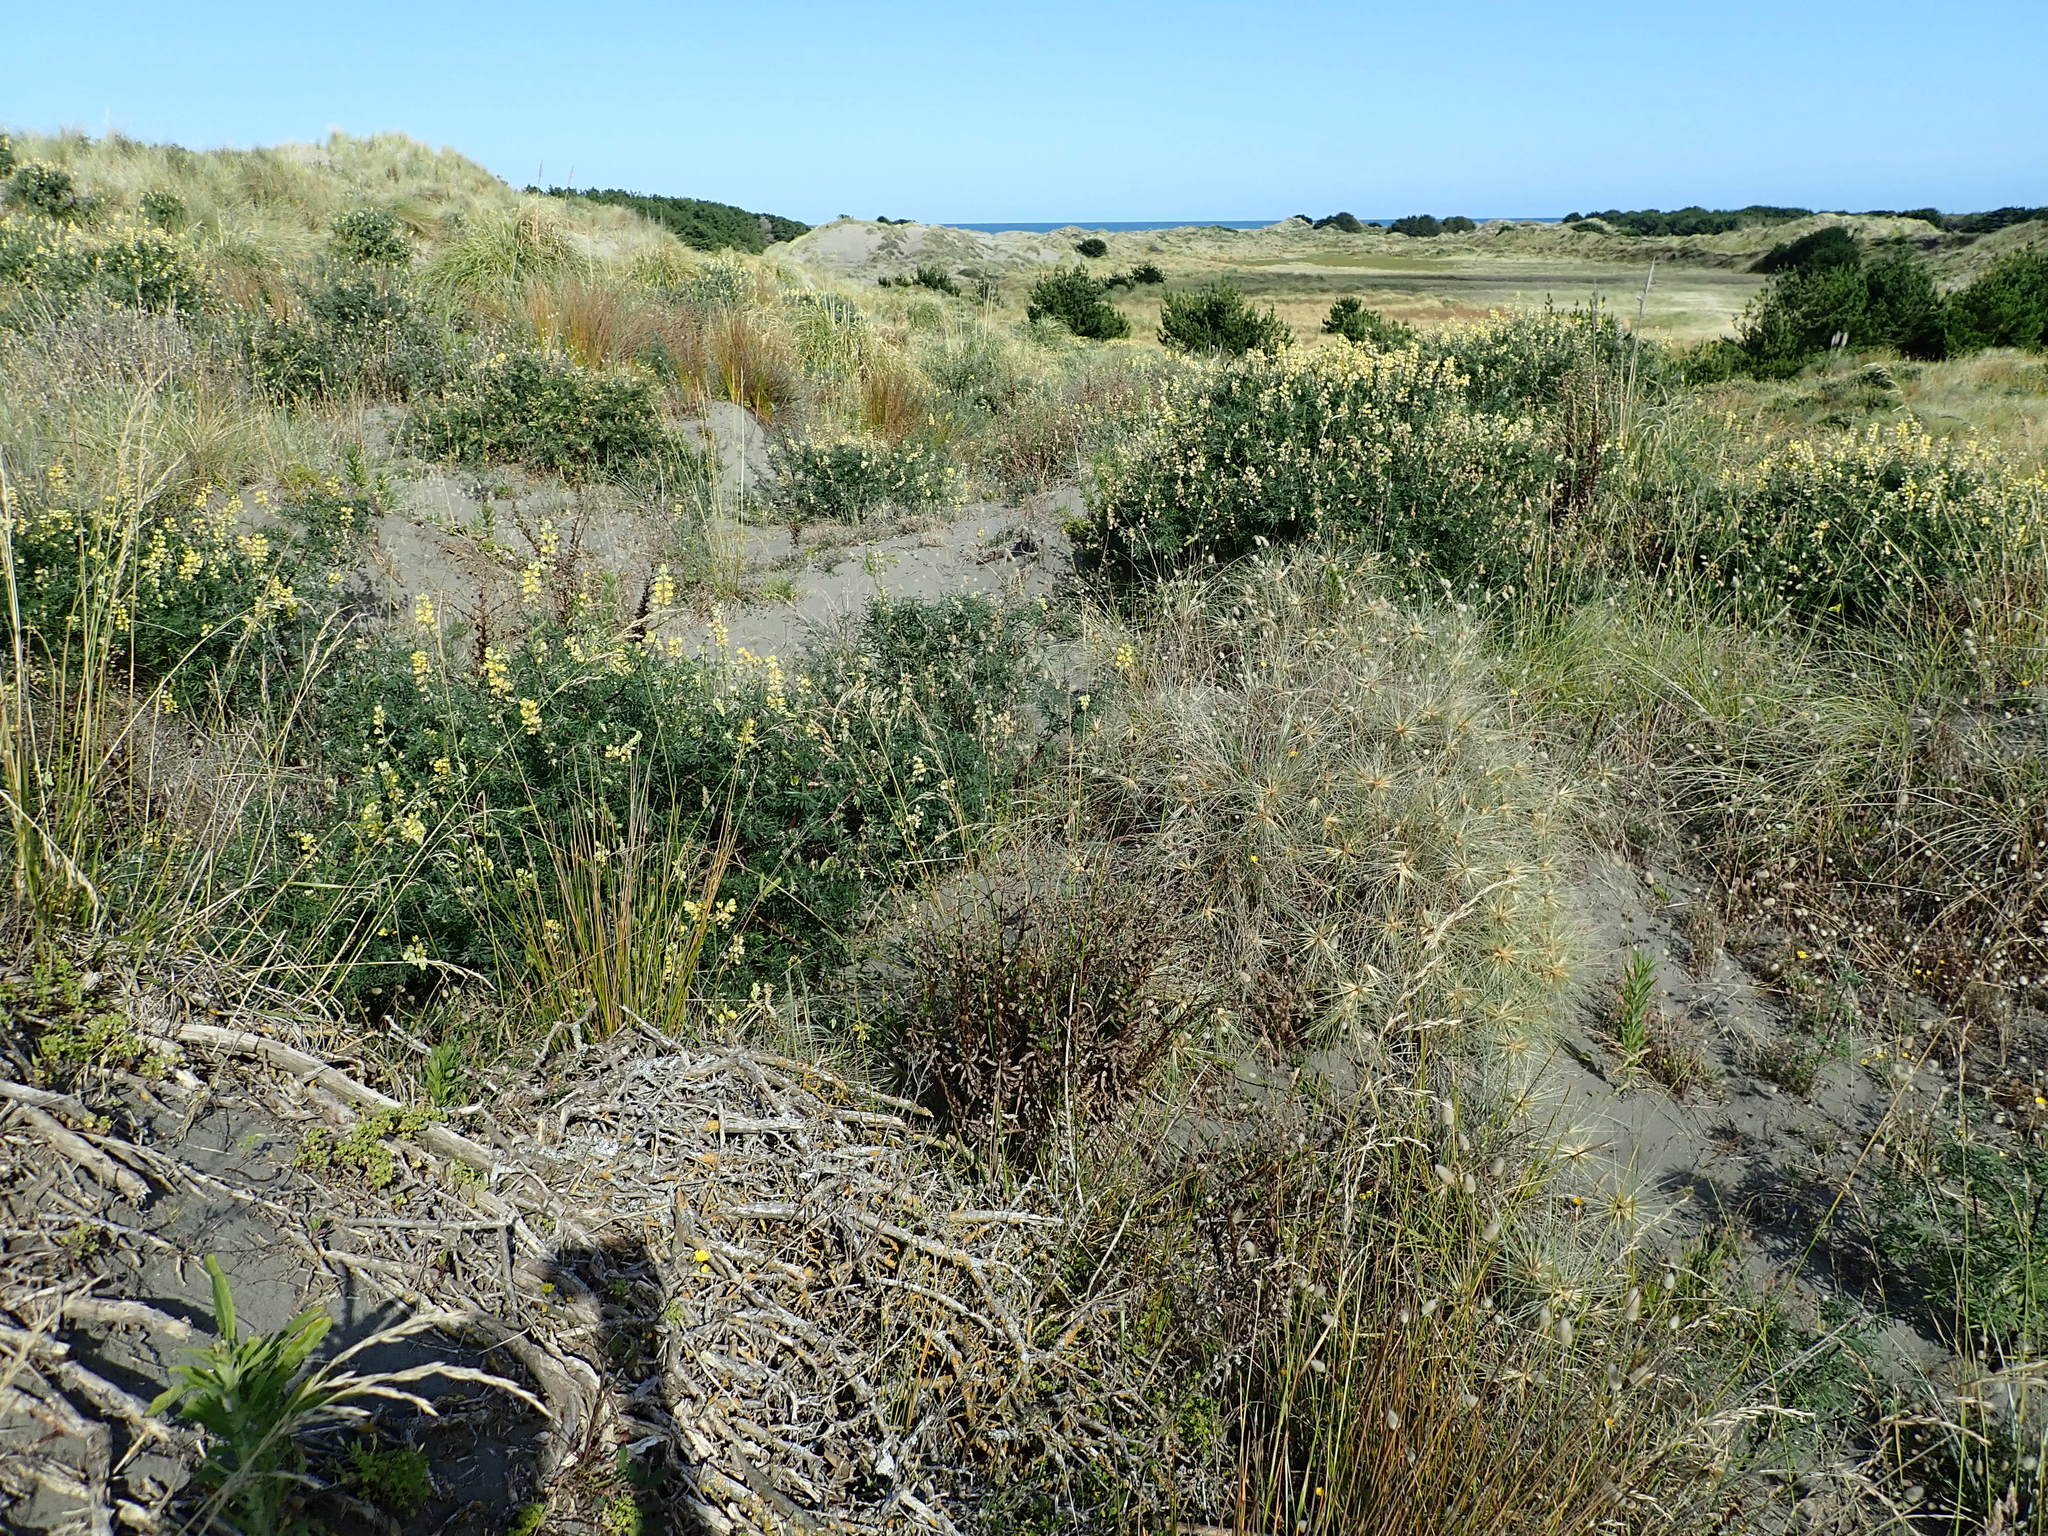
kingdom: Plantae
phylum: Tracheophyta
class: Liliopsida
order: Poales
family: Poaceae
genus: Spinifex
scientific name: Spinifex sericeus
